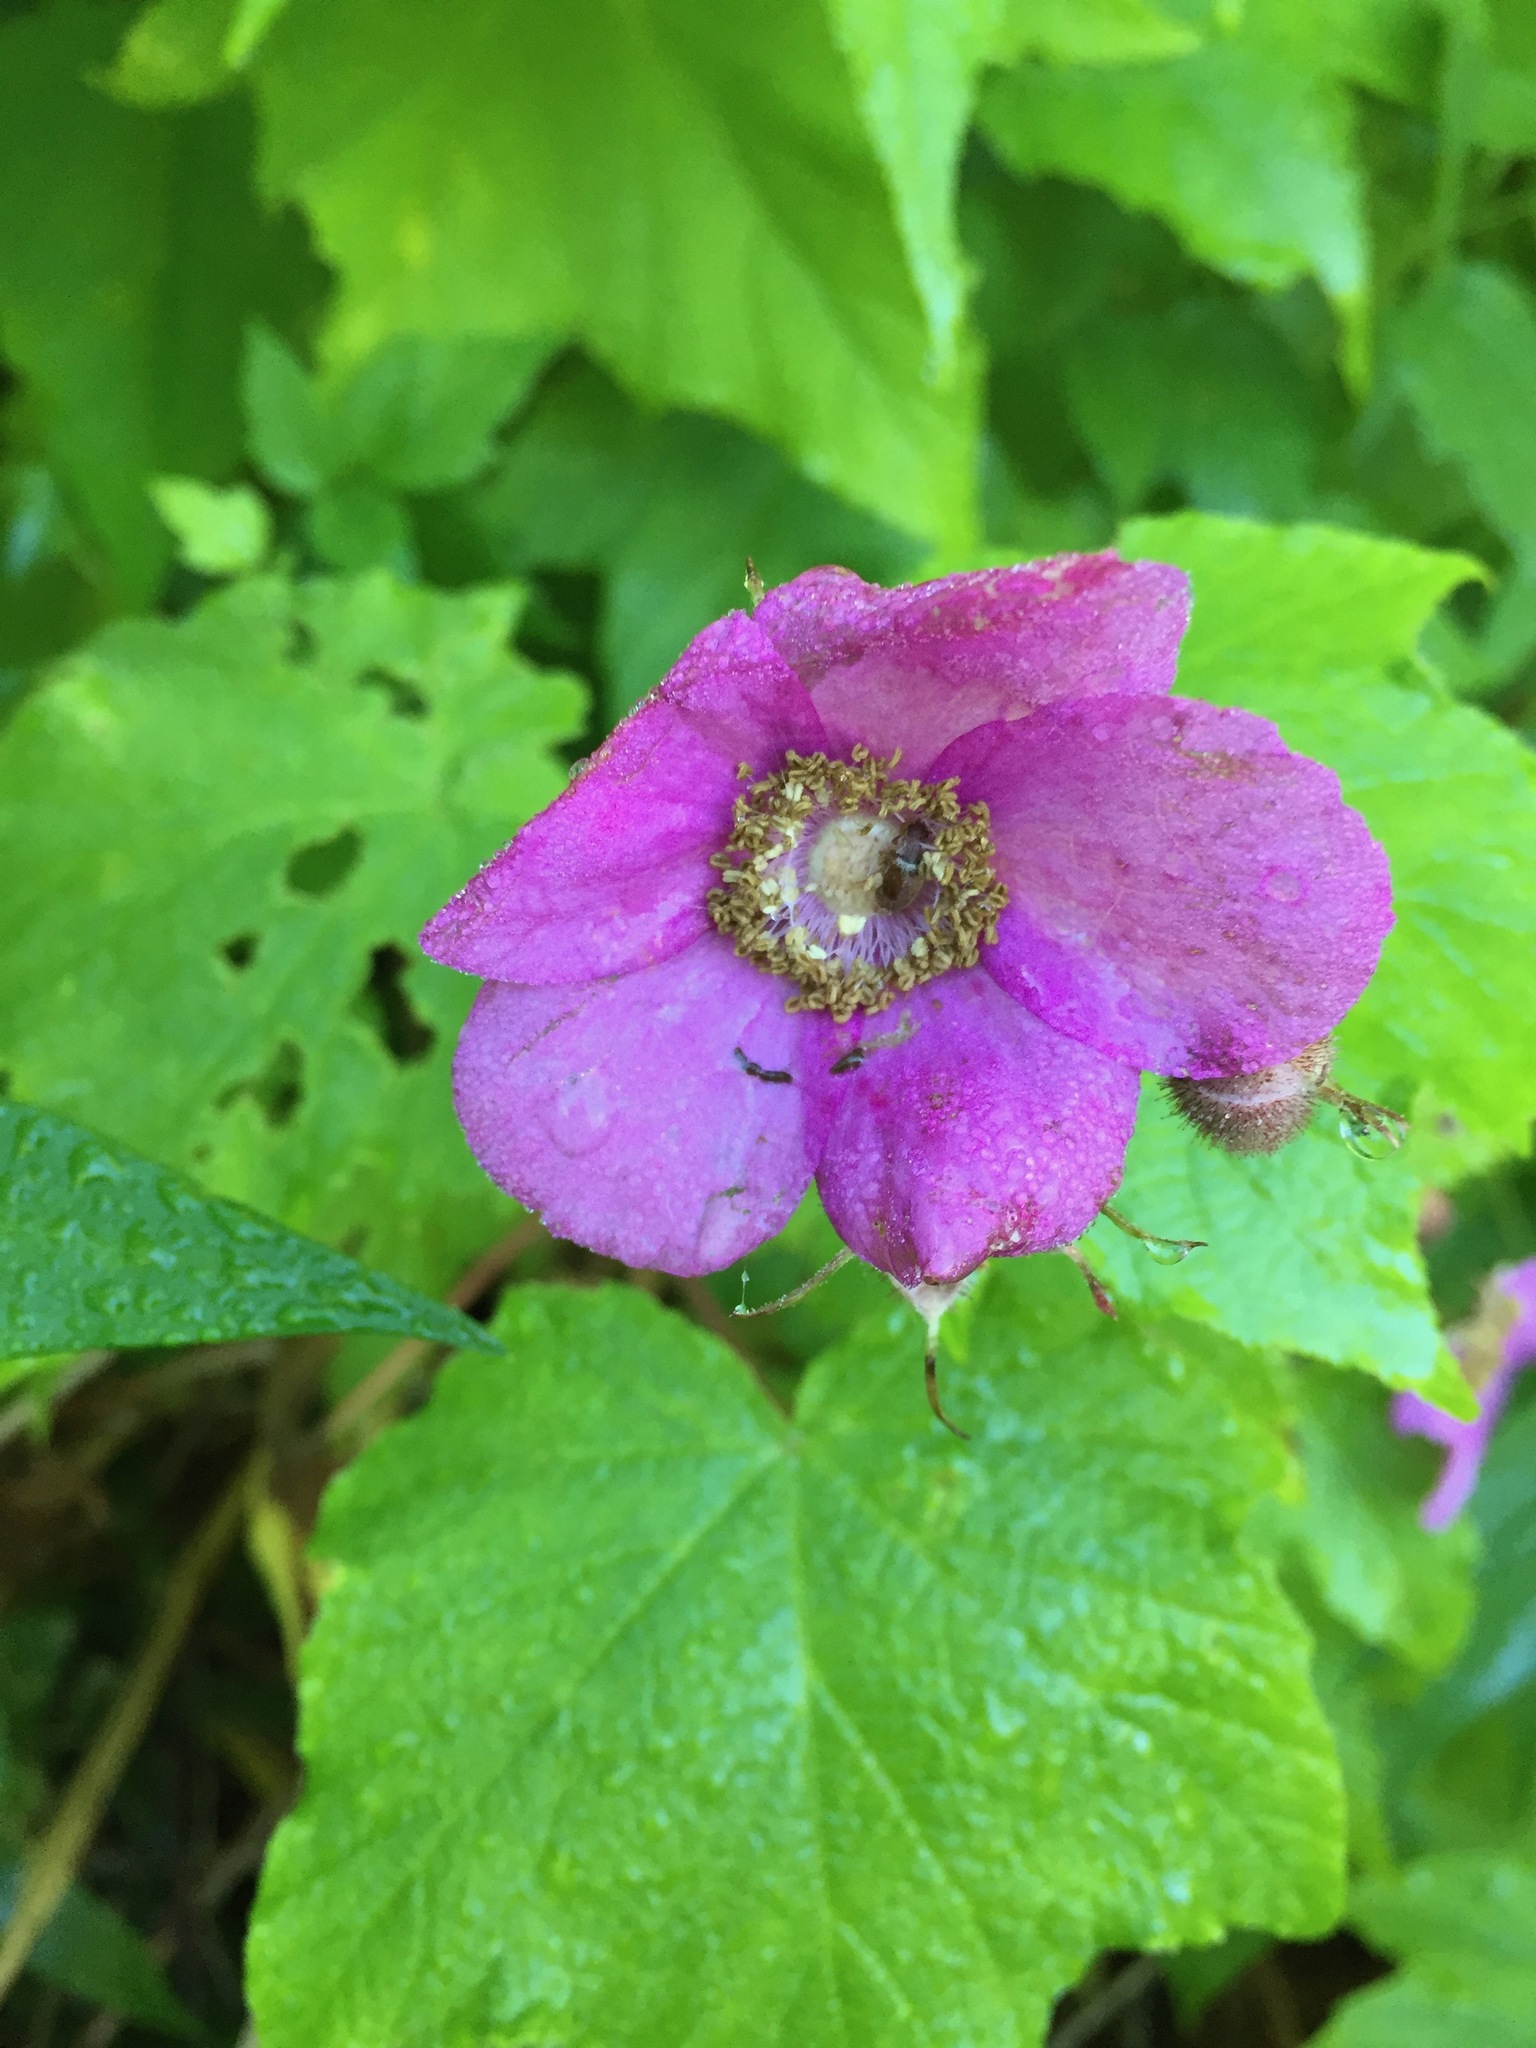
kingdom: Plantae
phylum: Tracheophyta
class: Magnoliopsida
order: Rosales
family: Rosaceae
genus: Rubus
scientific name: Rubus odoratus
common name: Purple-flowered raspberry
